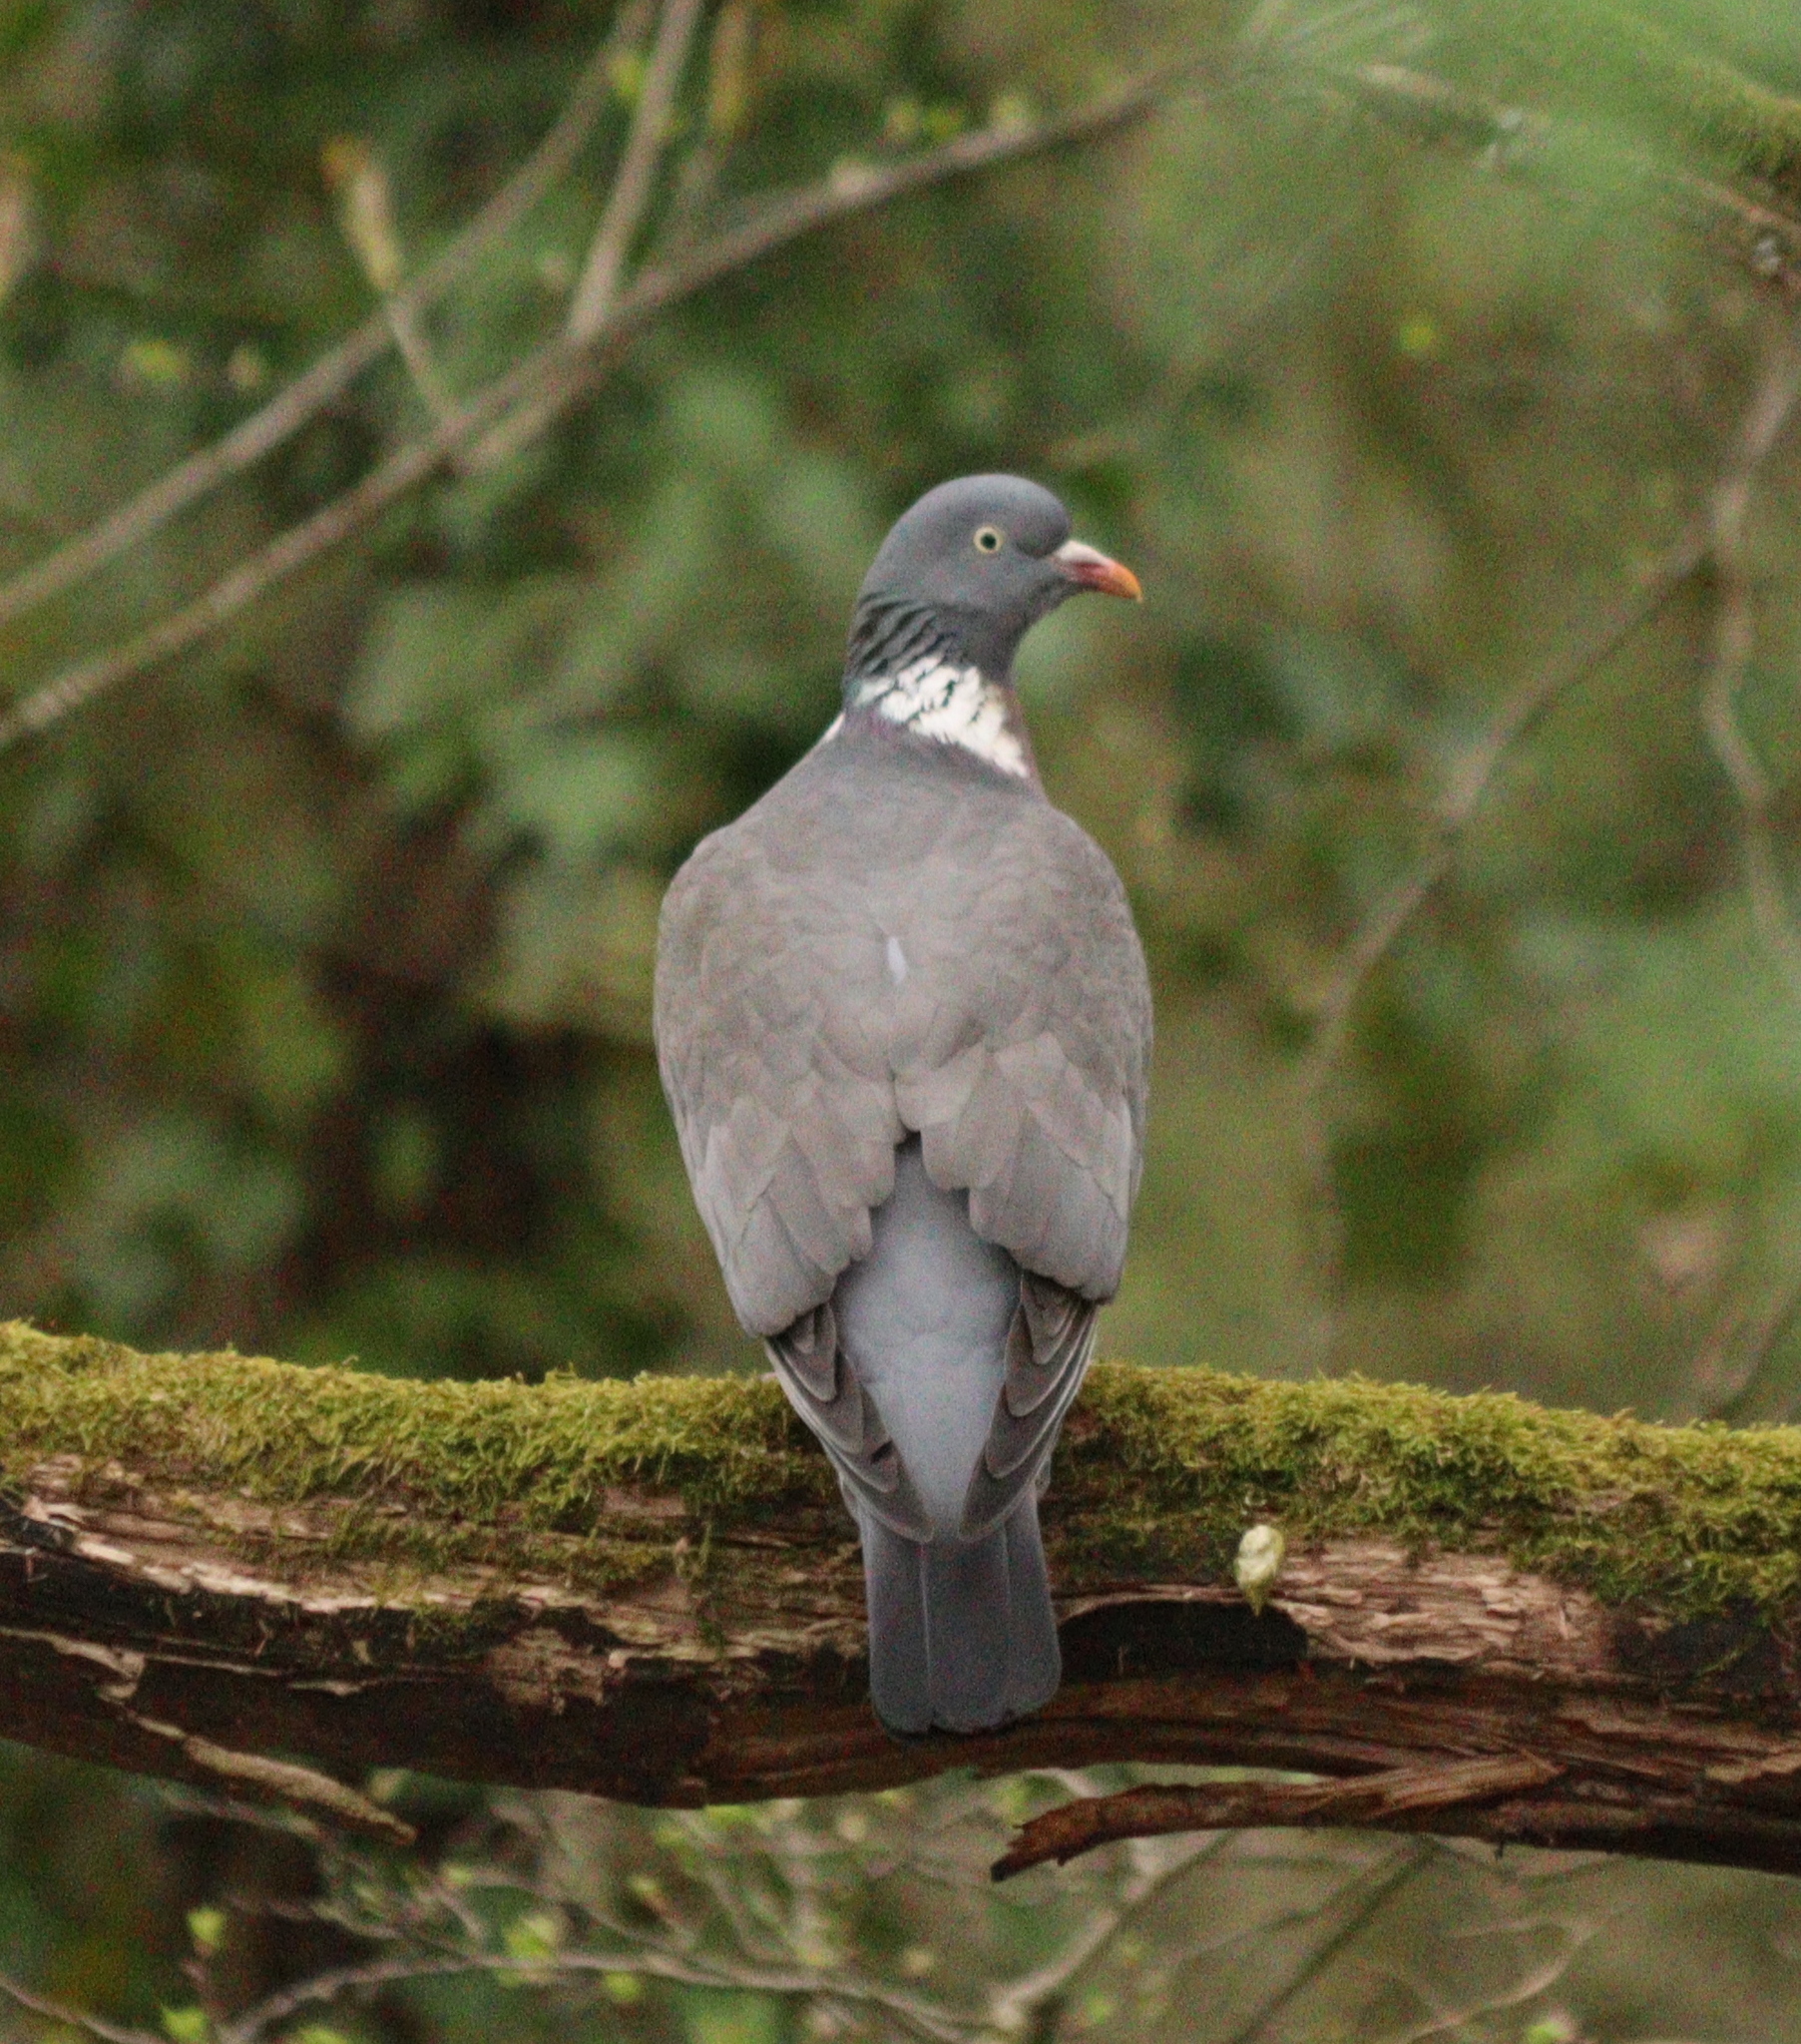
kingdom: Animalia
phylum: Chordata
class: Aves
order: Columbiformes
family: Columbidae
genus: Columba
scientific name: Columba palumbus
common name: Common wood pigeon
